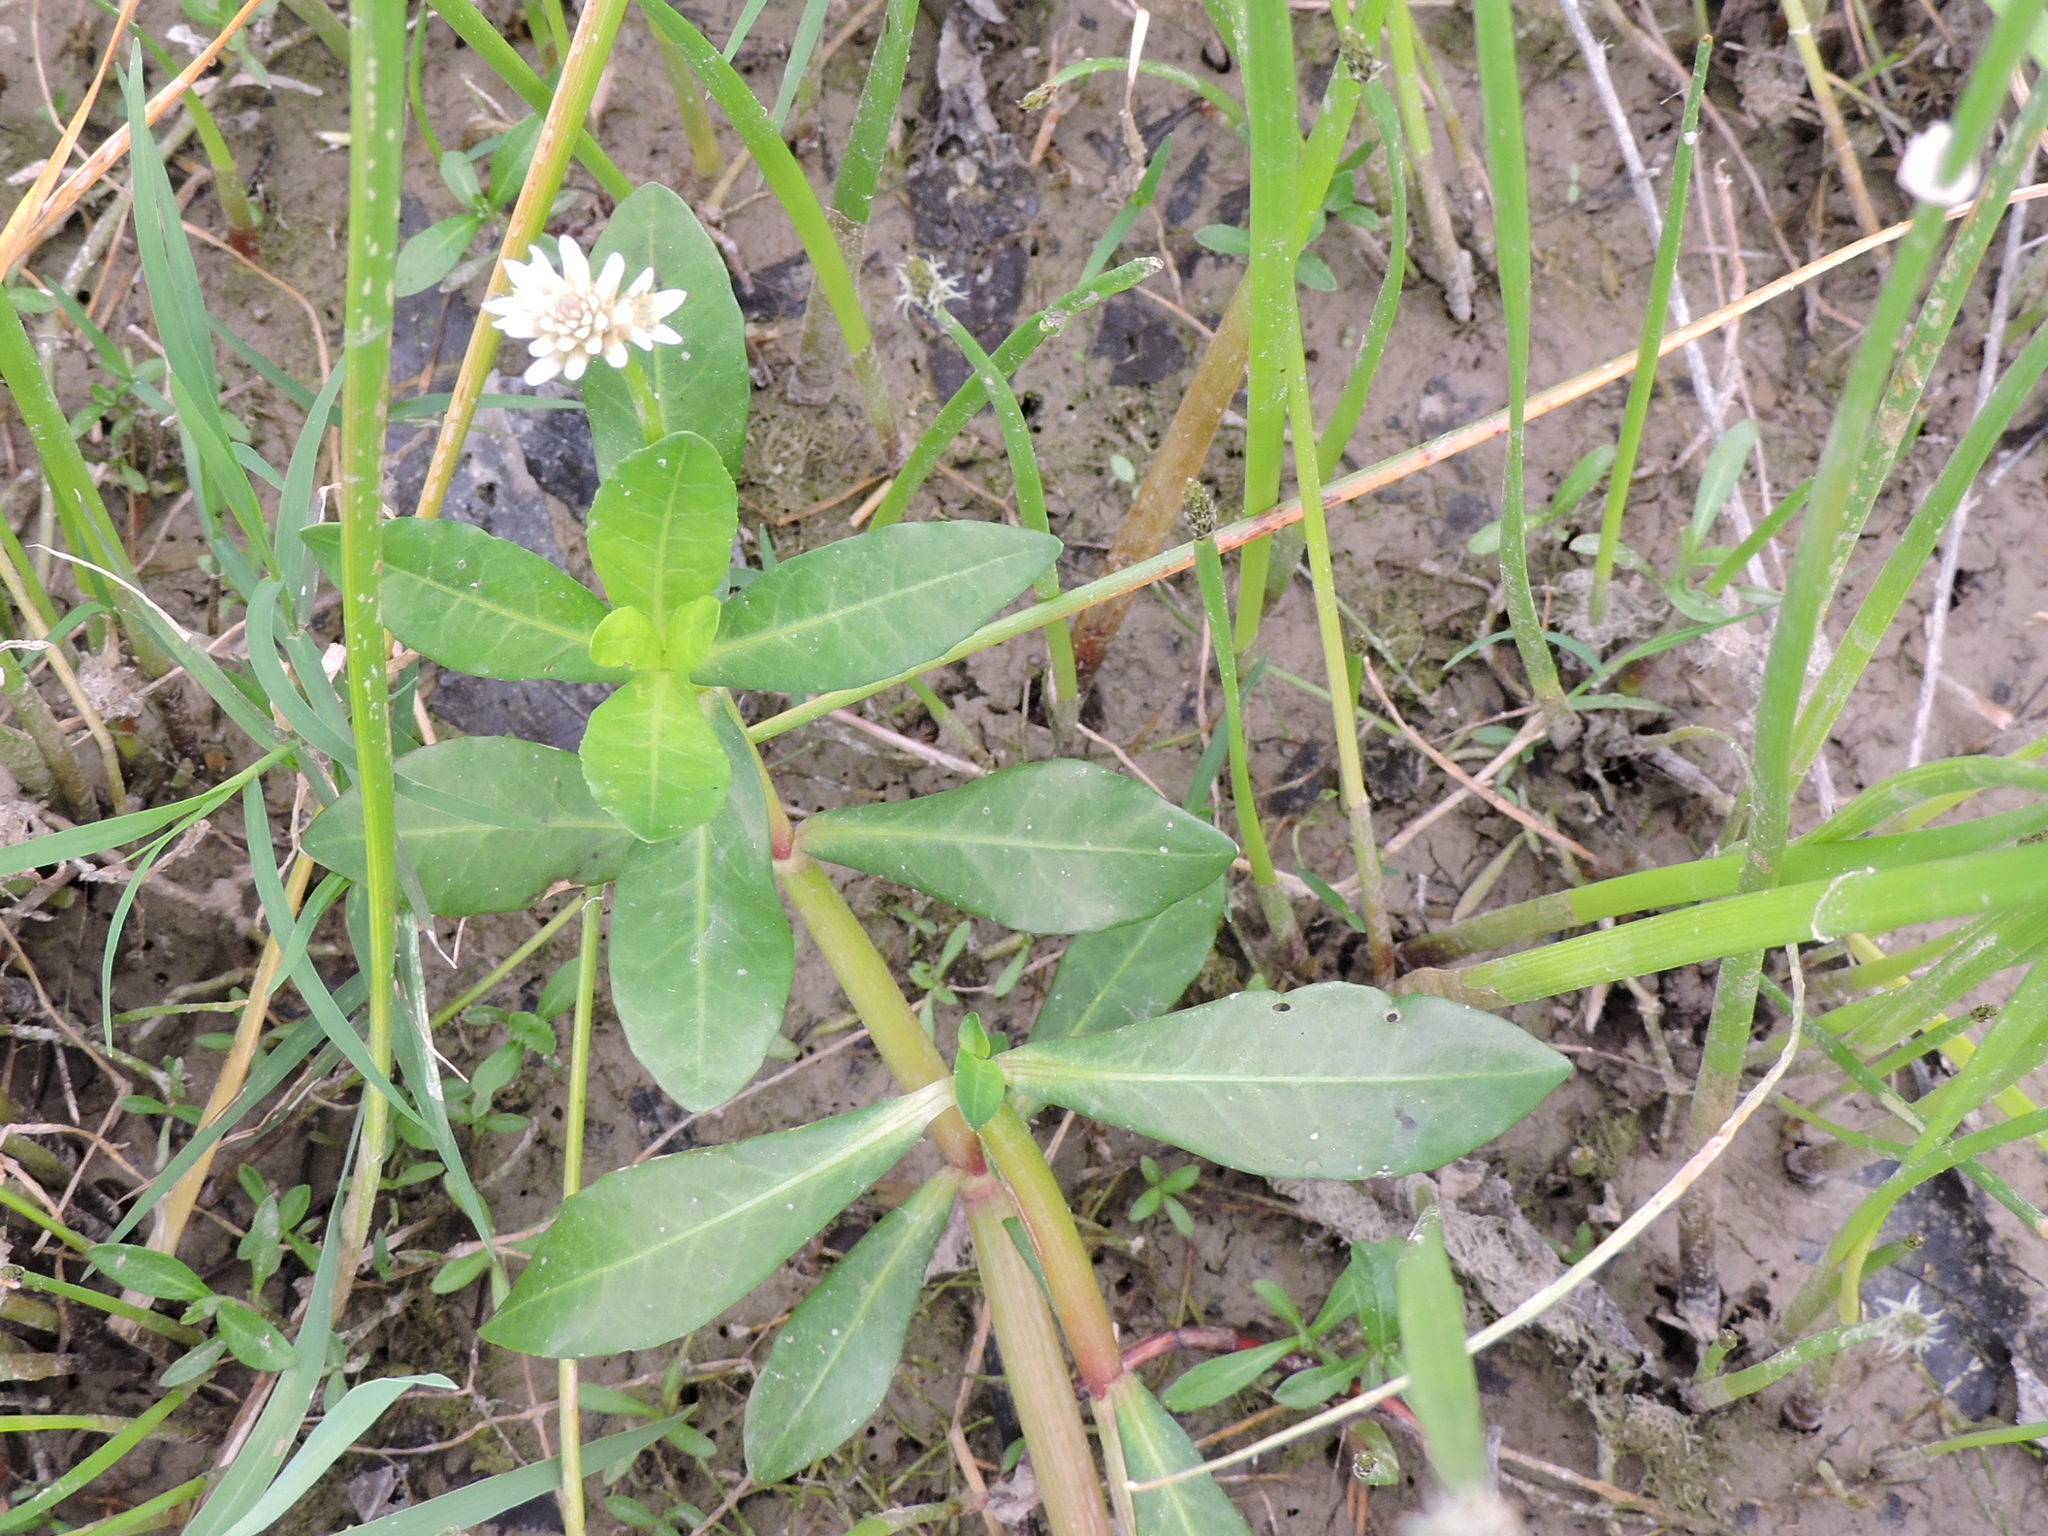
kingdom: Plantae
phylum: Tracheophyta
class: Magnoliopsida
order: Caryophyllales
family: Amaranthaceae
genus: Alternanthera
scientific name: Alternanthera philoxeroides
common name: Alligatorweed
